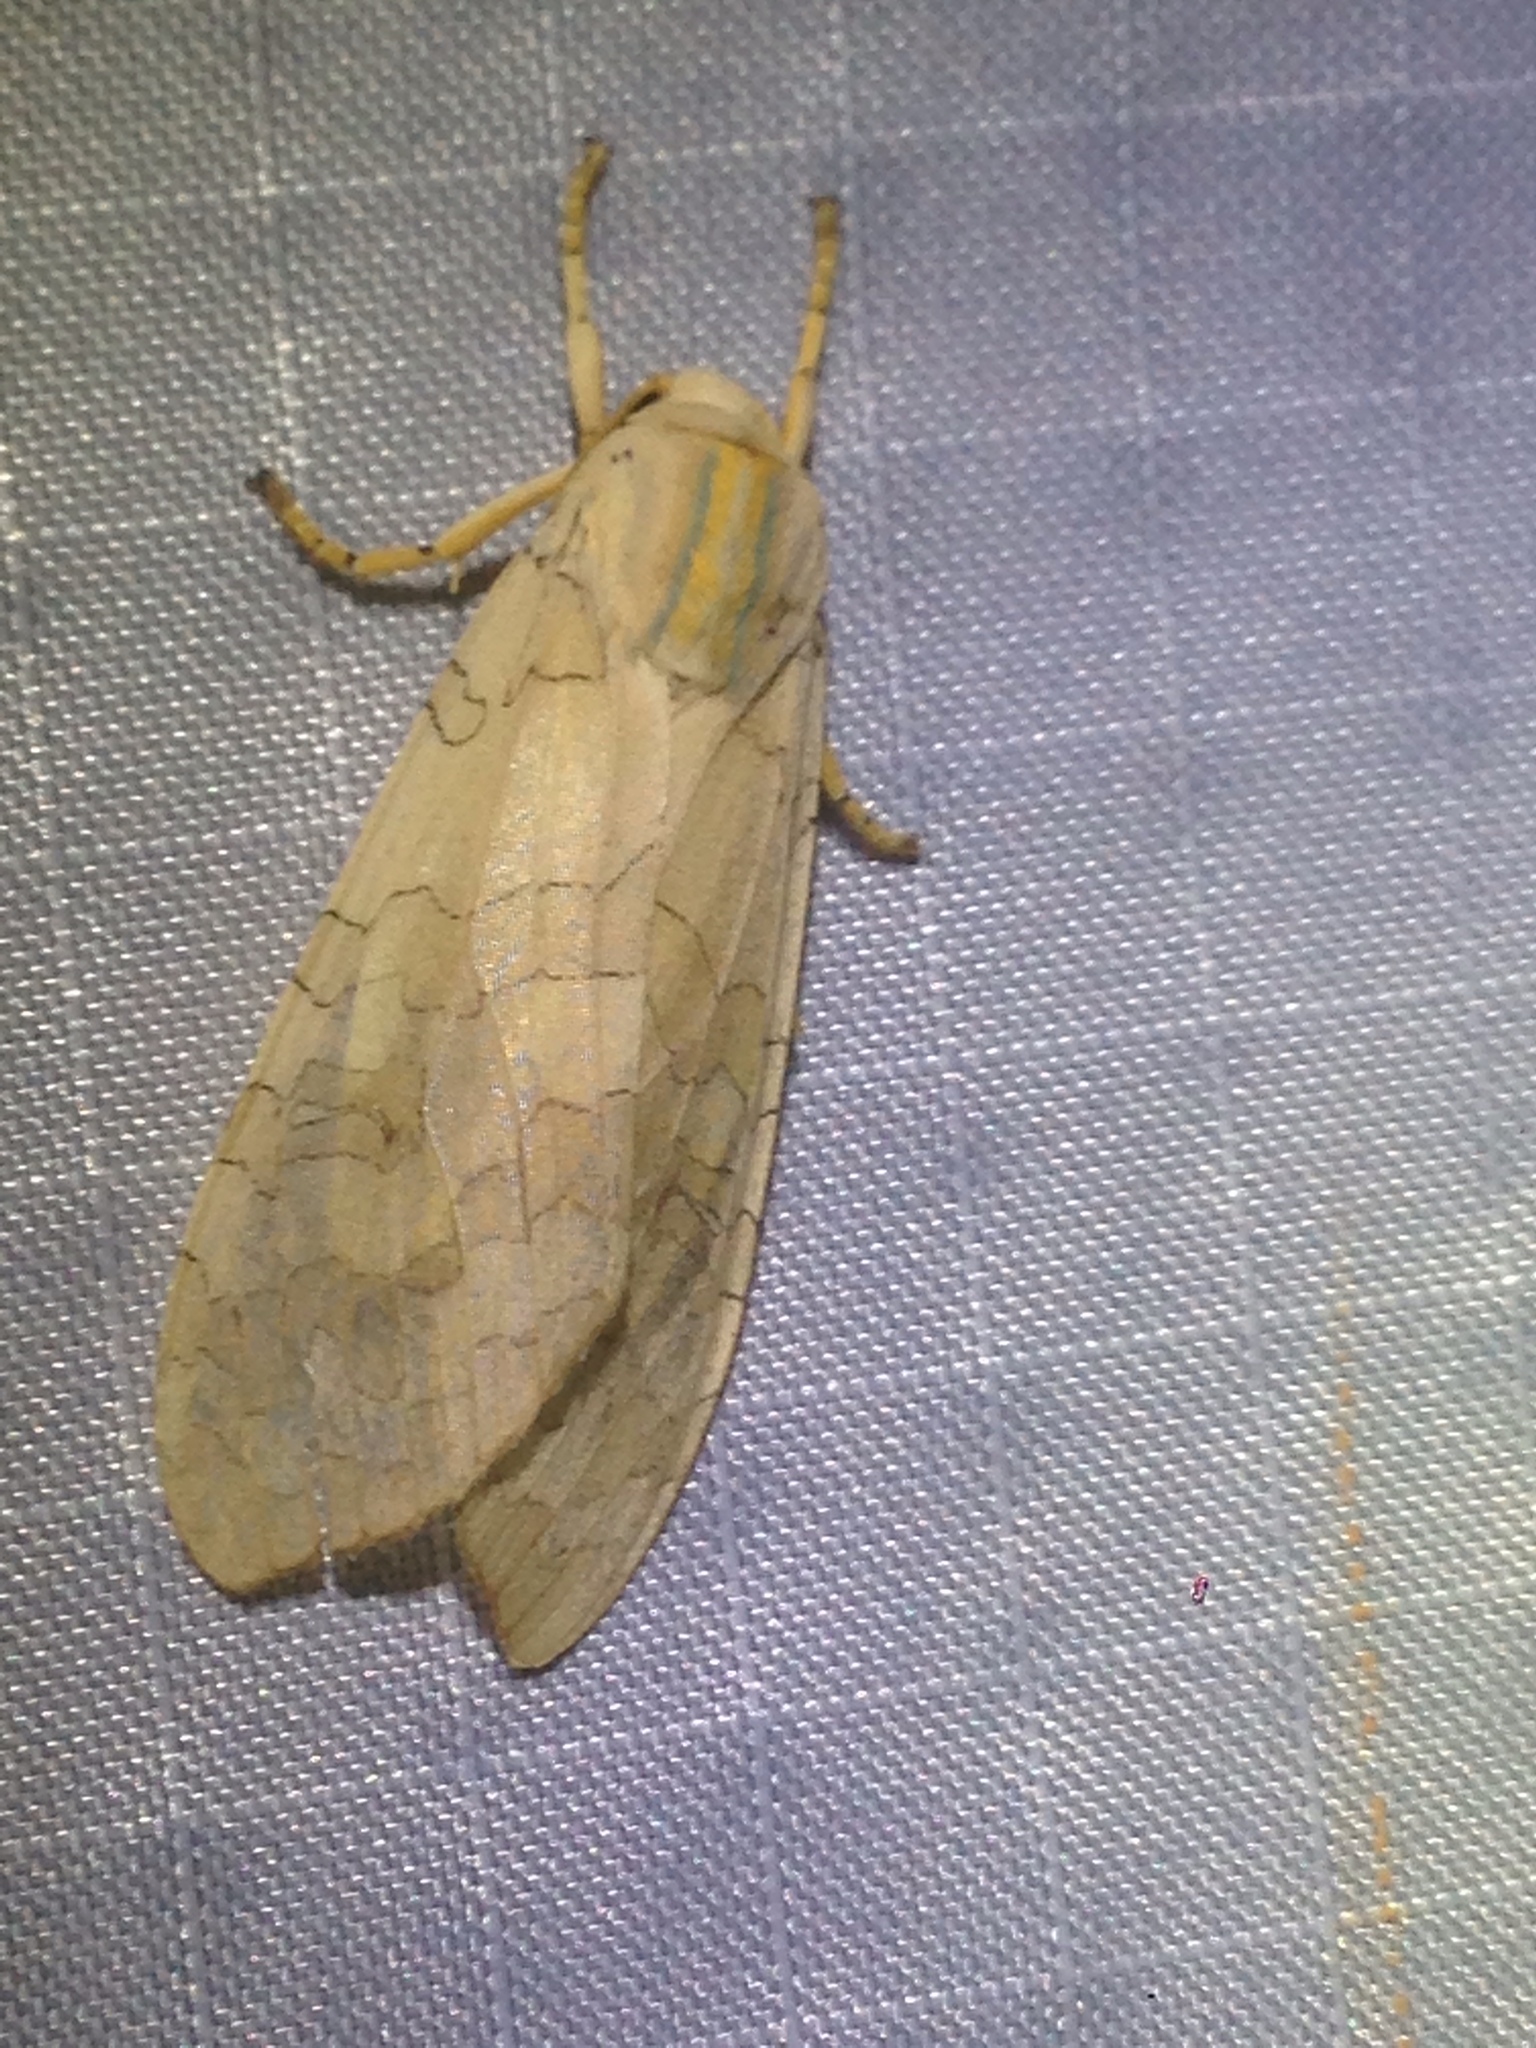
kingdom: Animalia
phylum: Arthropoda
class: Insecta
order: Lepidoptera
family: Erebidae
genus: Halysidota
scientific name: Halysidota
